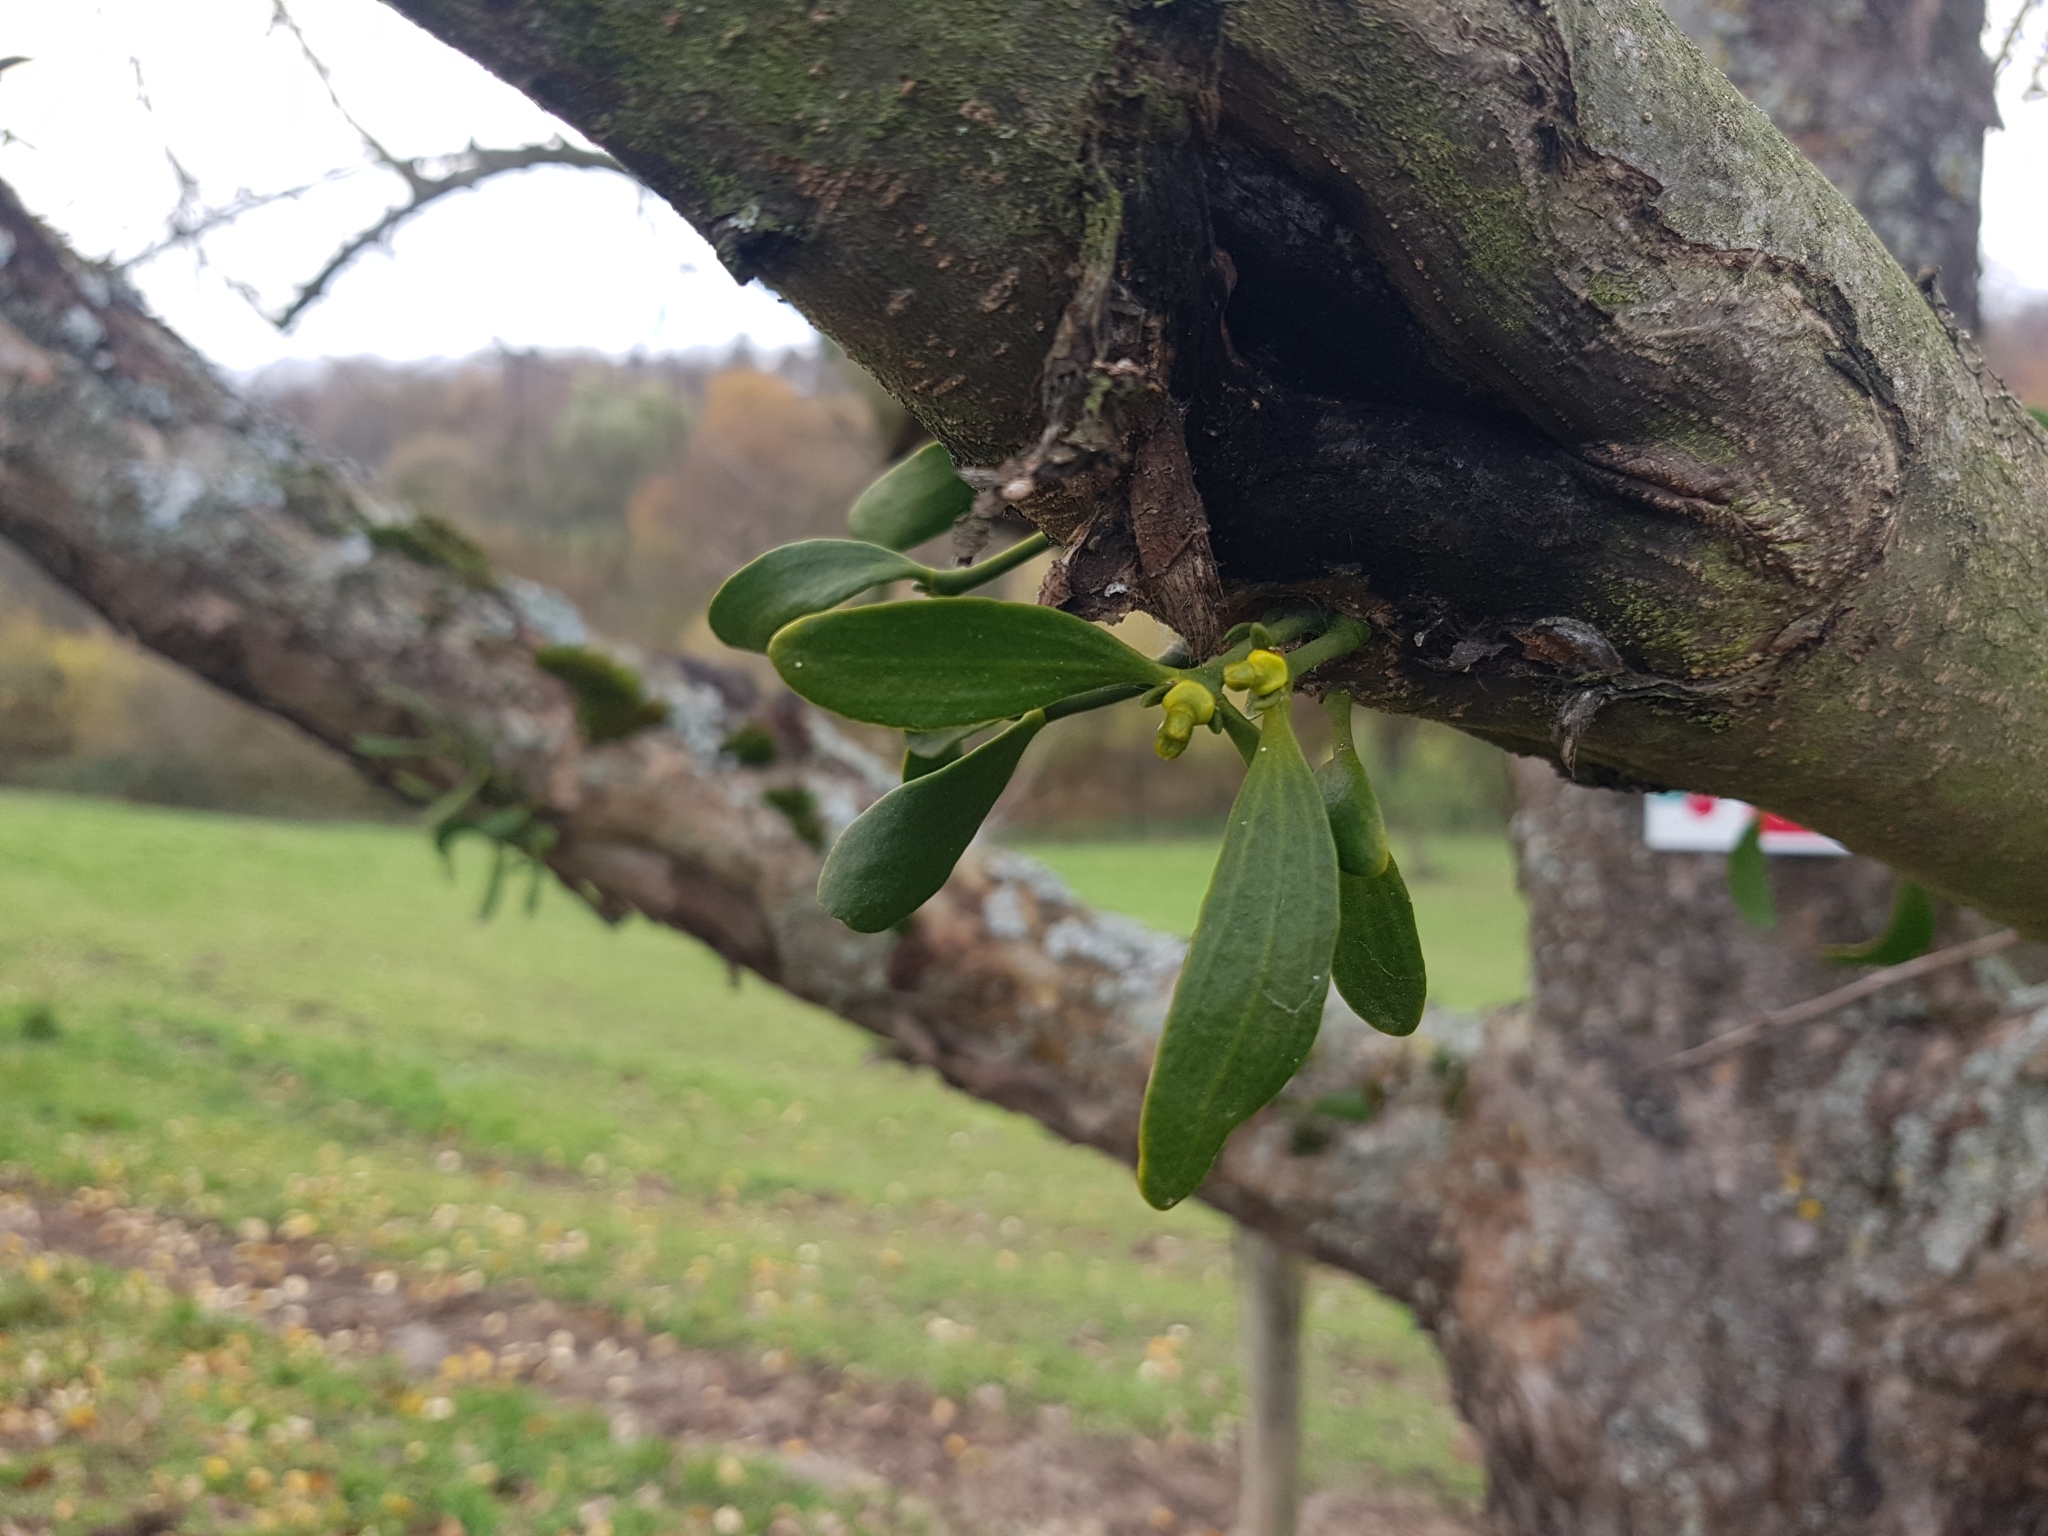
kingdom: Plantae
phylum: Tracheophyta
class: Magnoliopsida
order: Santalales
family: Viscaceae
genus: Viscum
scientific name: Viscum album
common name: Mistletoe
